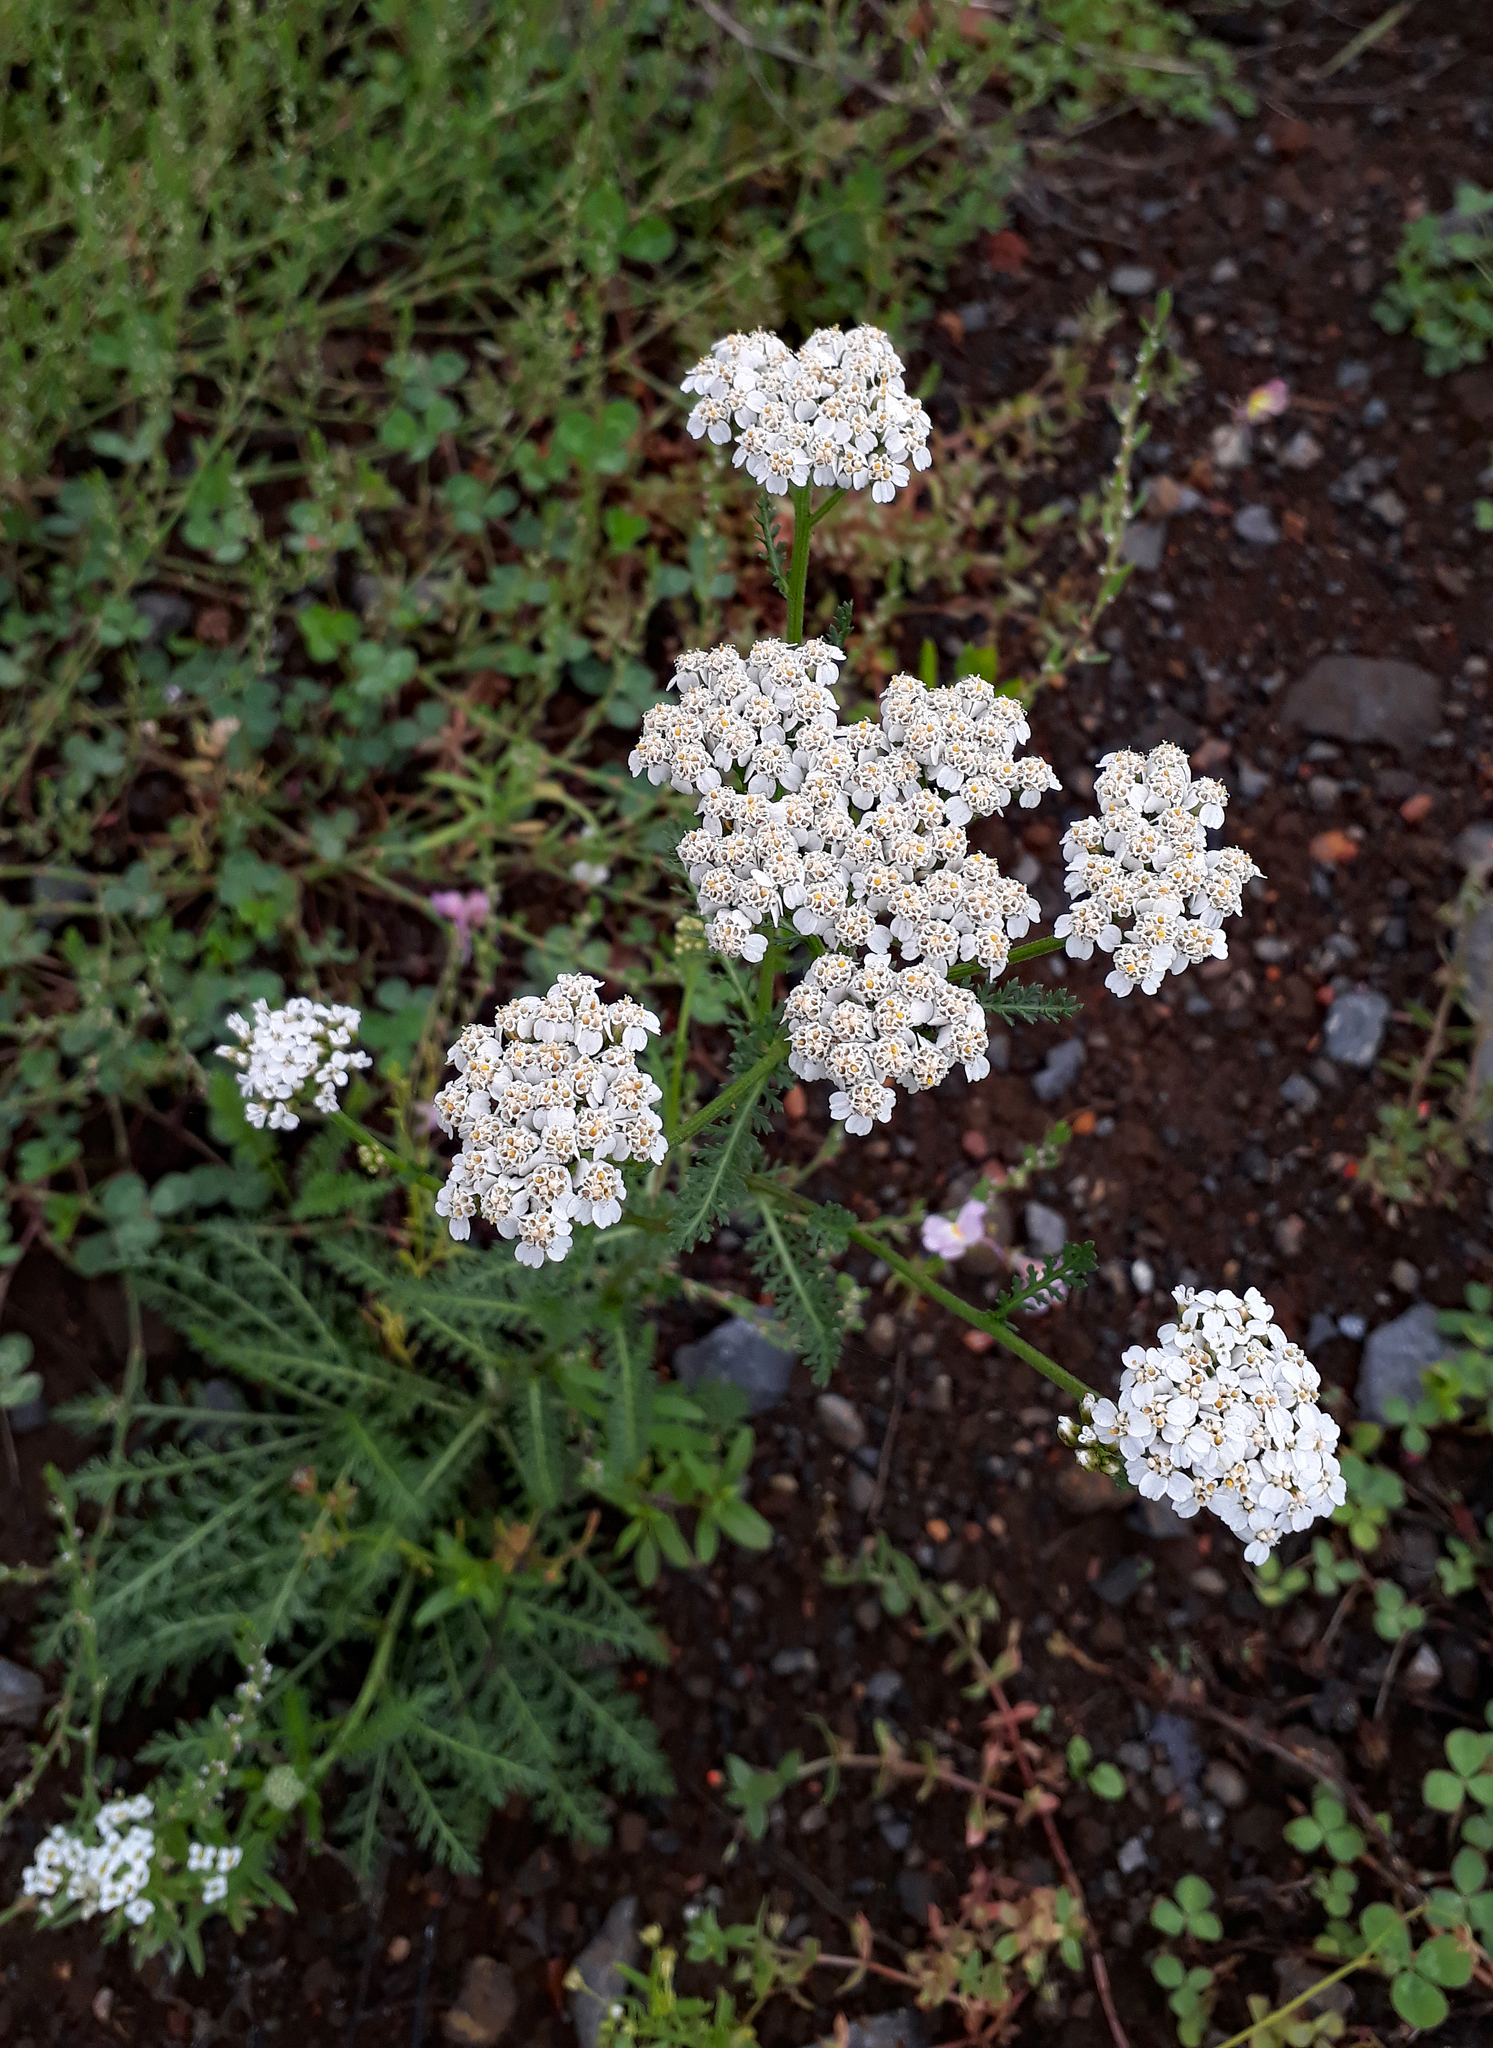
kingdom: Plantae
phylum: Tracheophyta
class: Magnoliopsida
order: Asterales
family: Asteraceae
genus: Achillea
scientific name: Achillea millefolium
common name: Yarrow
